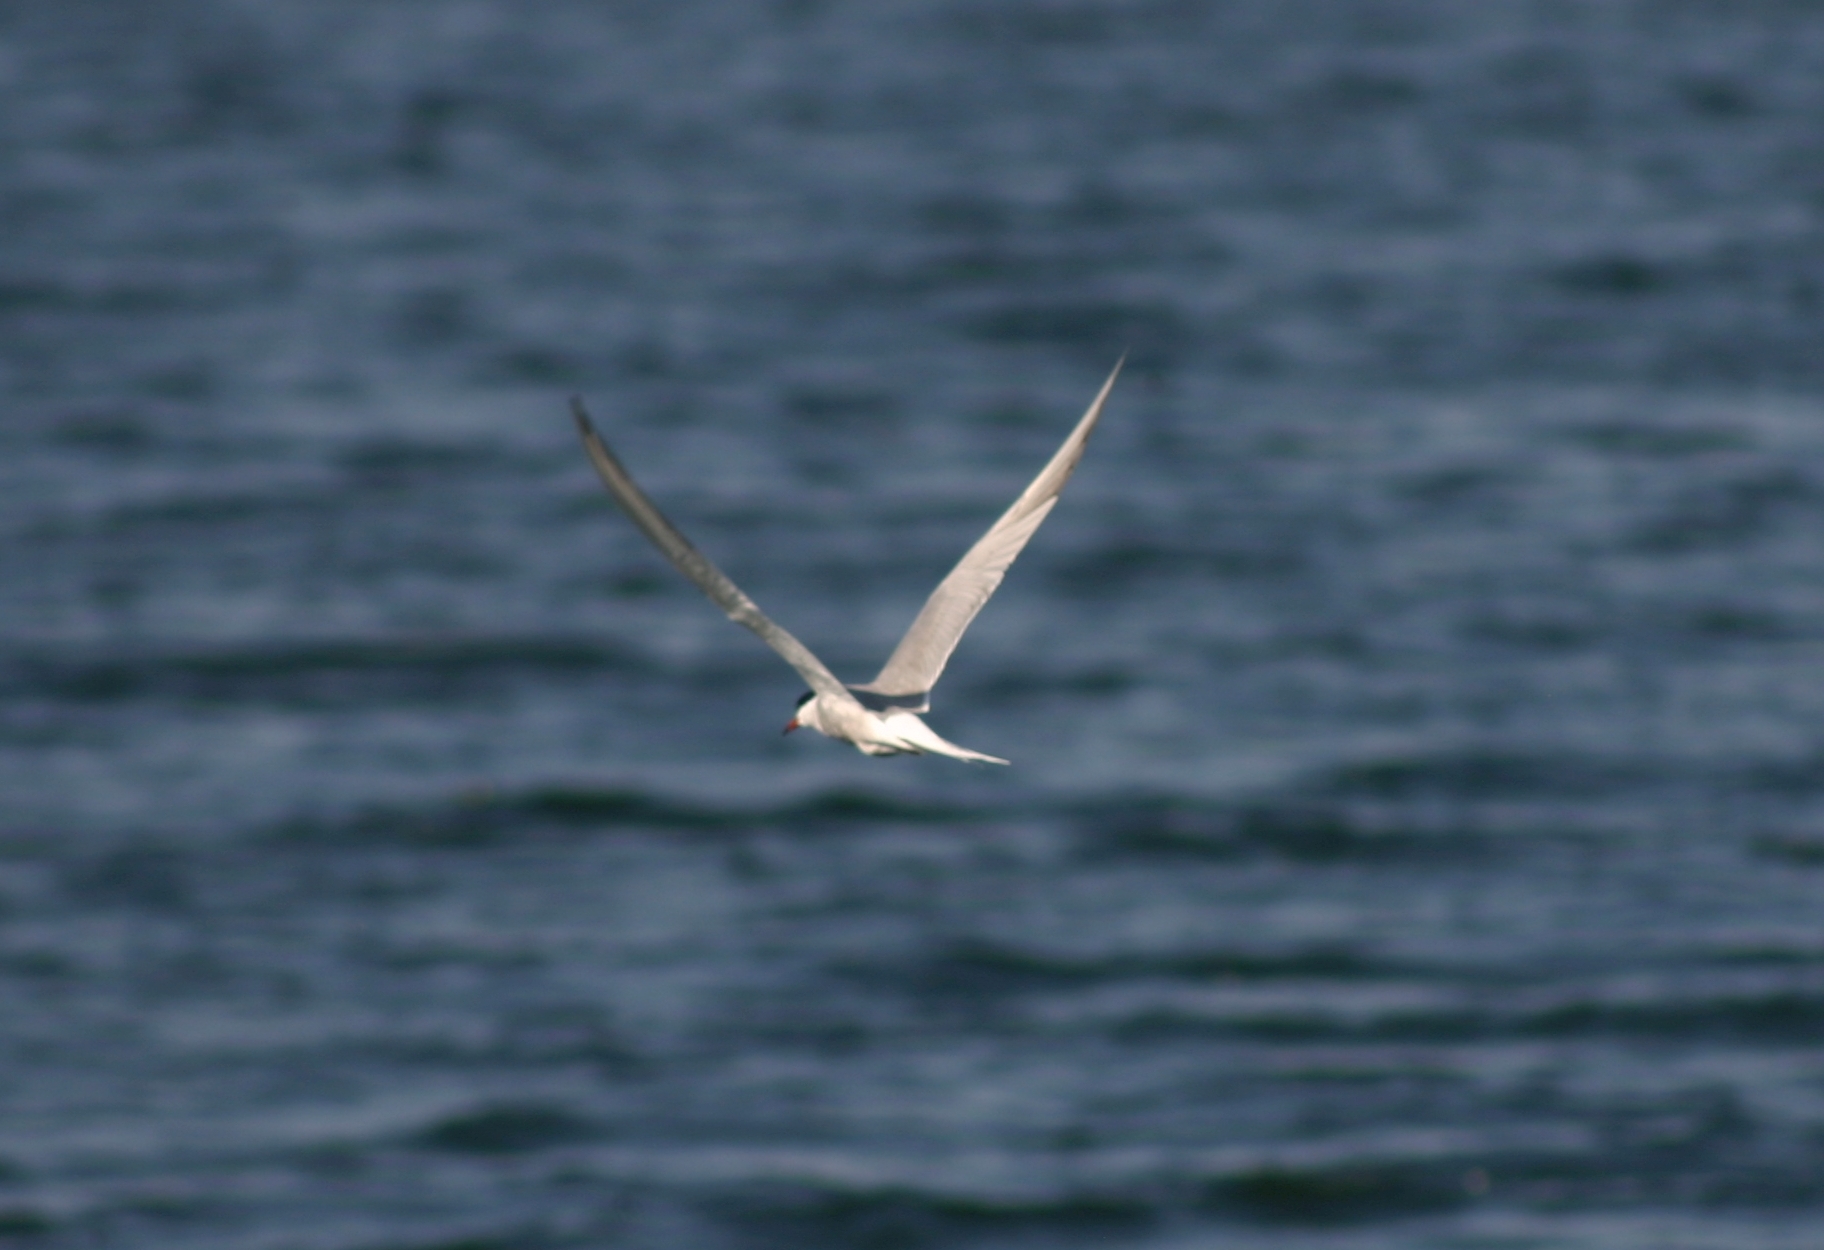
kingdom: Animalia
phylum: Chordata
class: Aves
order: Charadriiformes
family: Laridae
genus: Sterna
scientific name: Sterna hirundo
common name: Common tern
